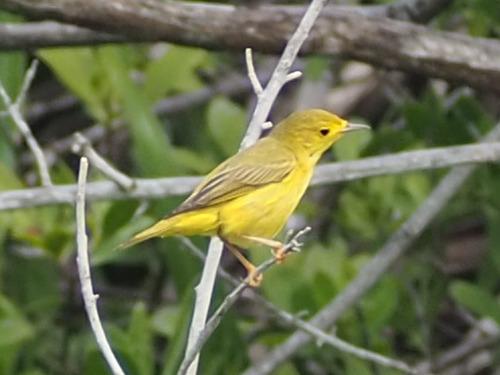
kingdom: Animalia
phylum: Chordata
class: Aves
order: Passeriformes
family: Parulidae
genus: Setophaga
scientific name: Setophaga petechia
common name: Yellow warbler
